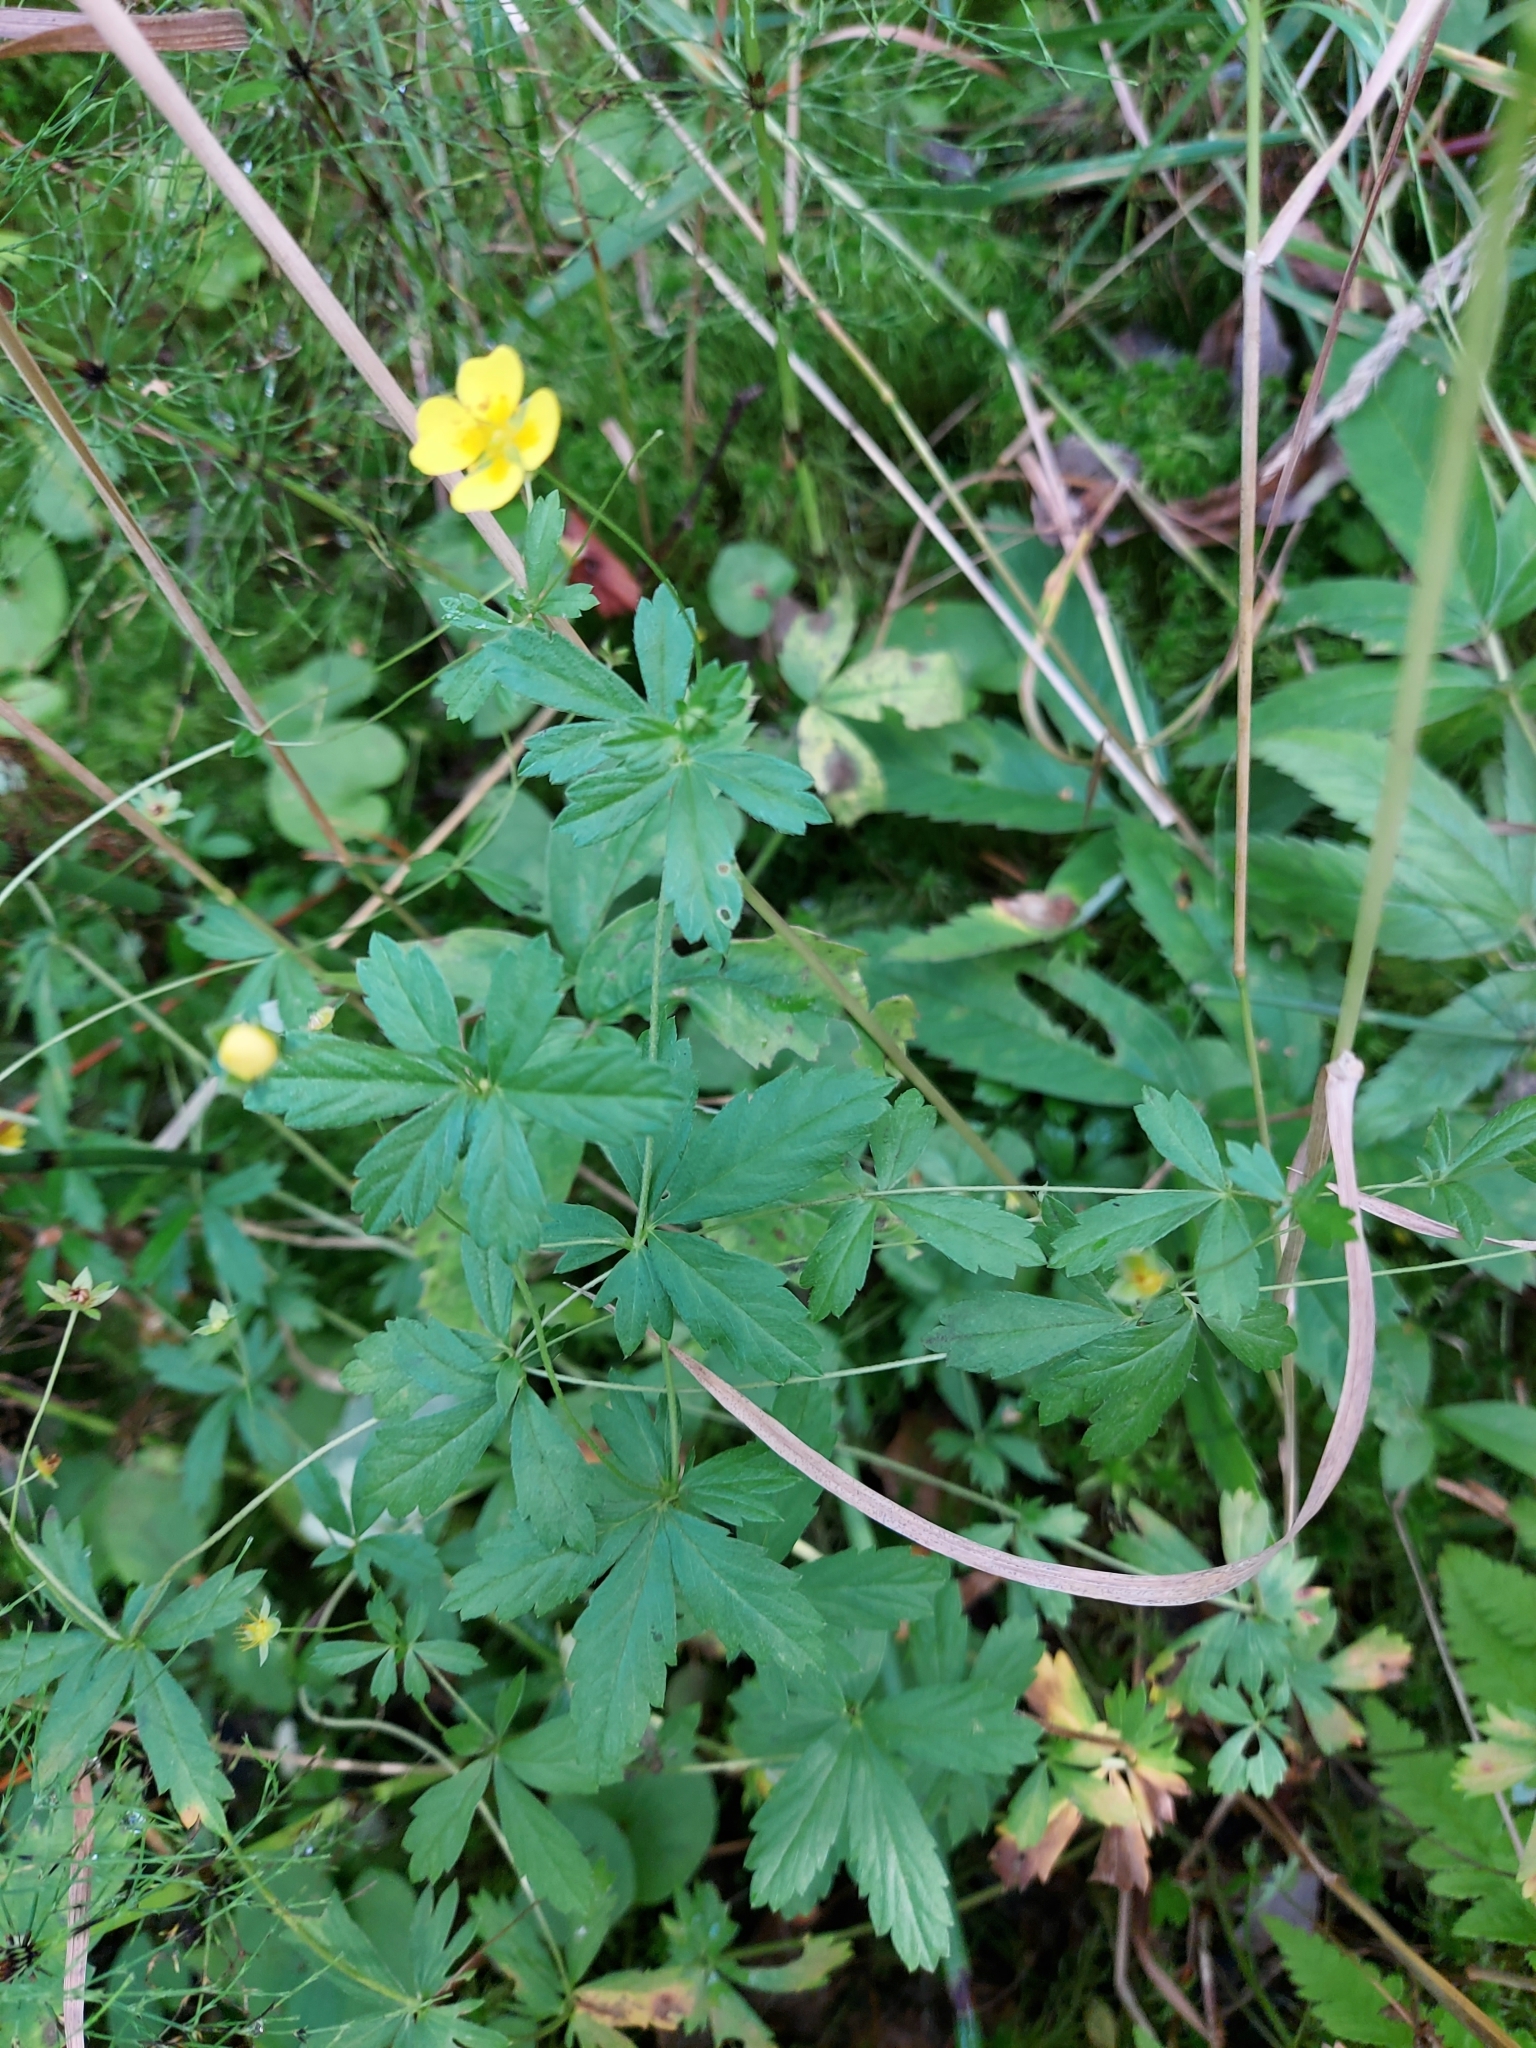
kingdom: Plantae
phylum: Tracheophyta
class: Magnoliopsida
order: Rosales
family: Rosaceae
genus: Potentilla
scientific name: Potentilla erecta
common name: Tormentil
